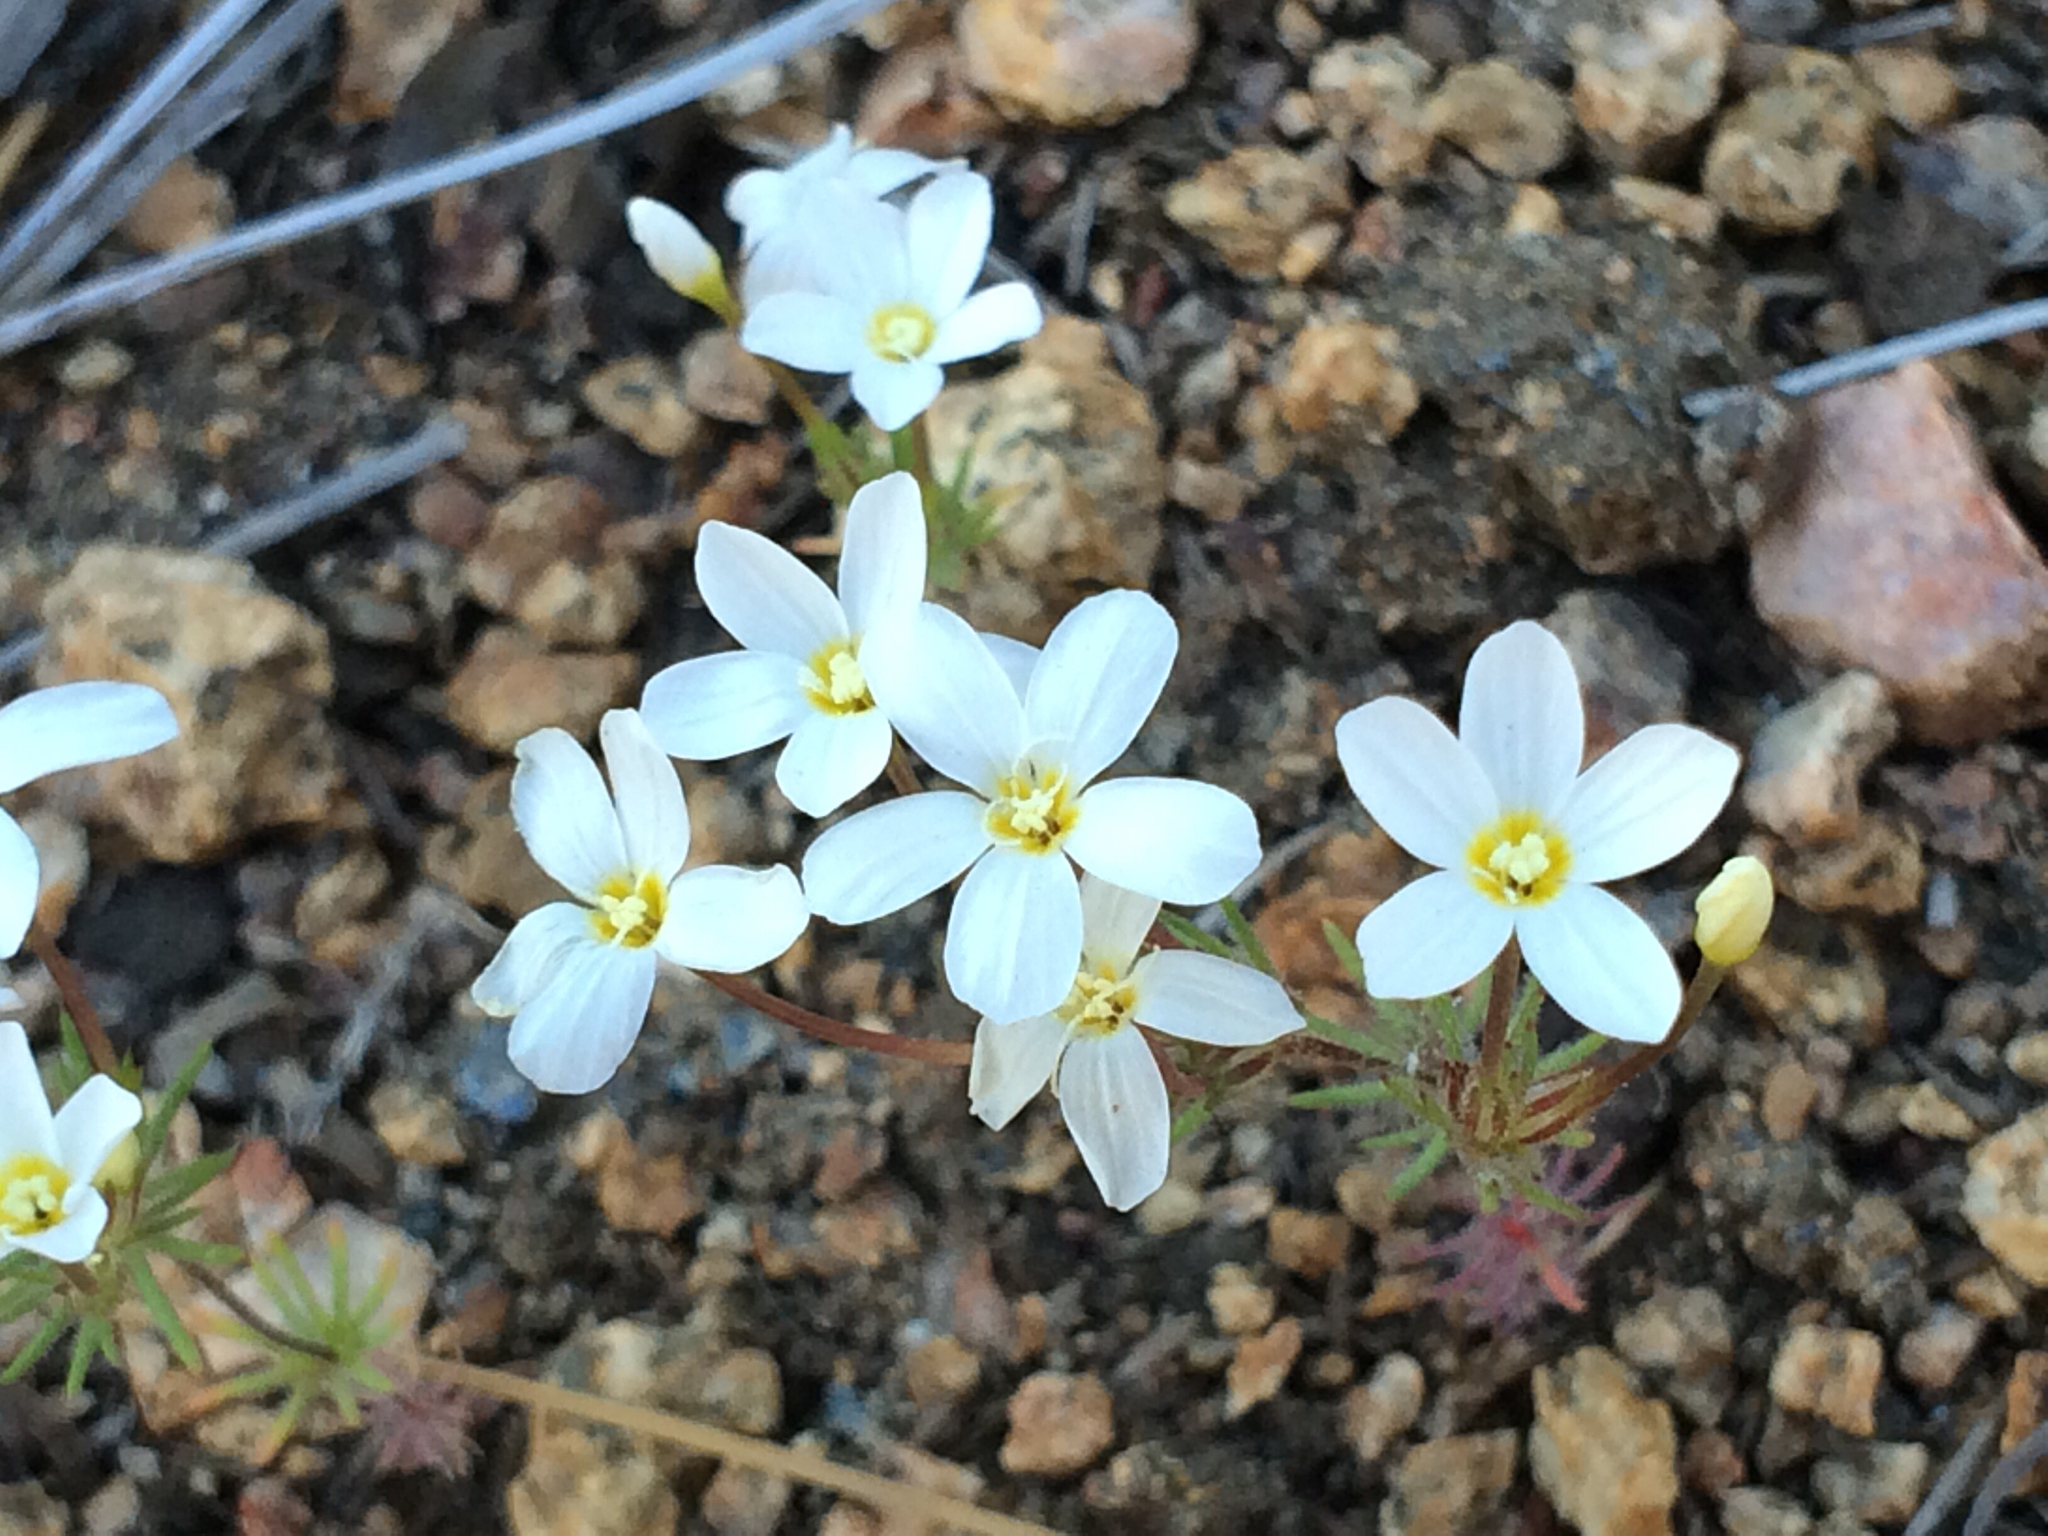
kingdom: Plantae
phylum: Tracheophyta
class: Magnoliopsida
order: Ericales
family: Polemoniaceae
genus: Leptosiphon
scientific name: Leptosiphon breviculus
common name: Mojave linanthus
